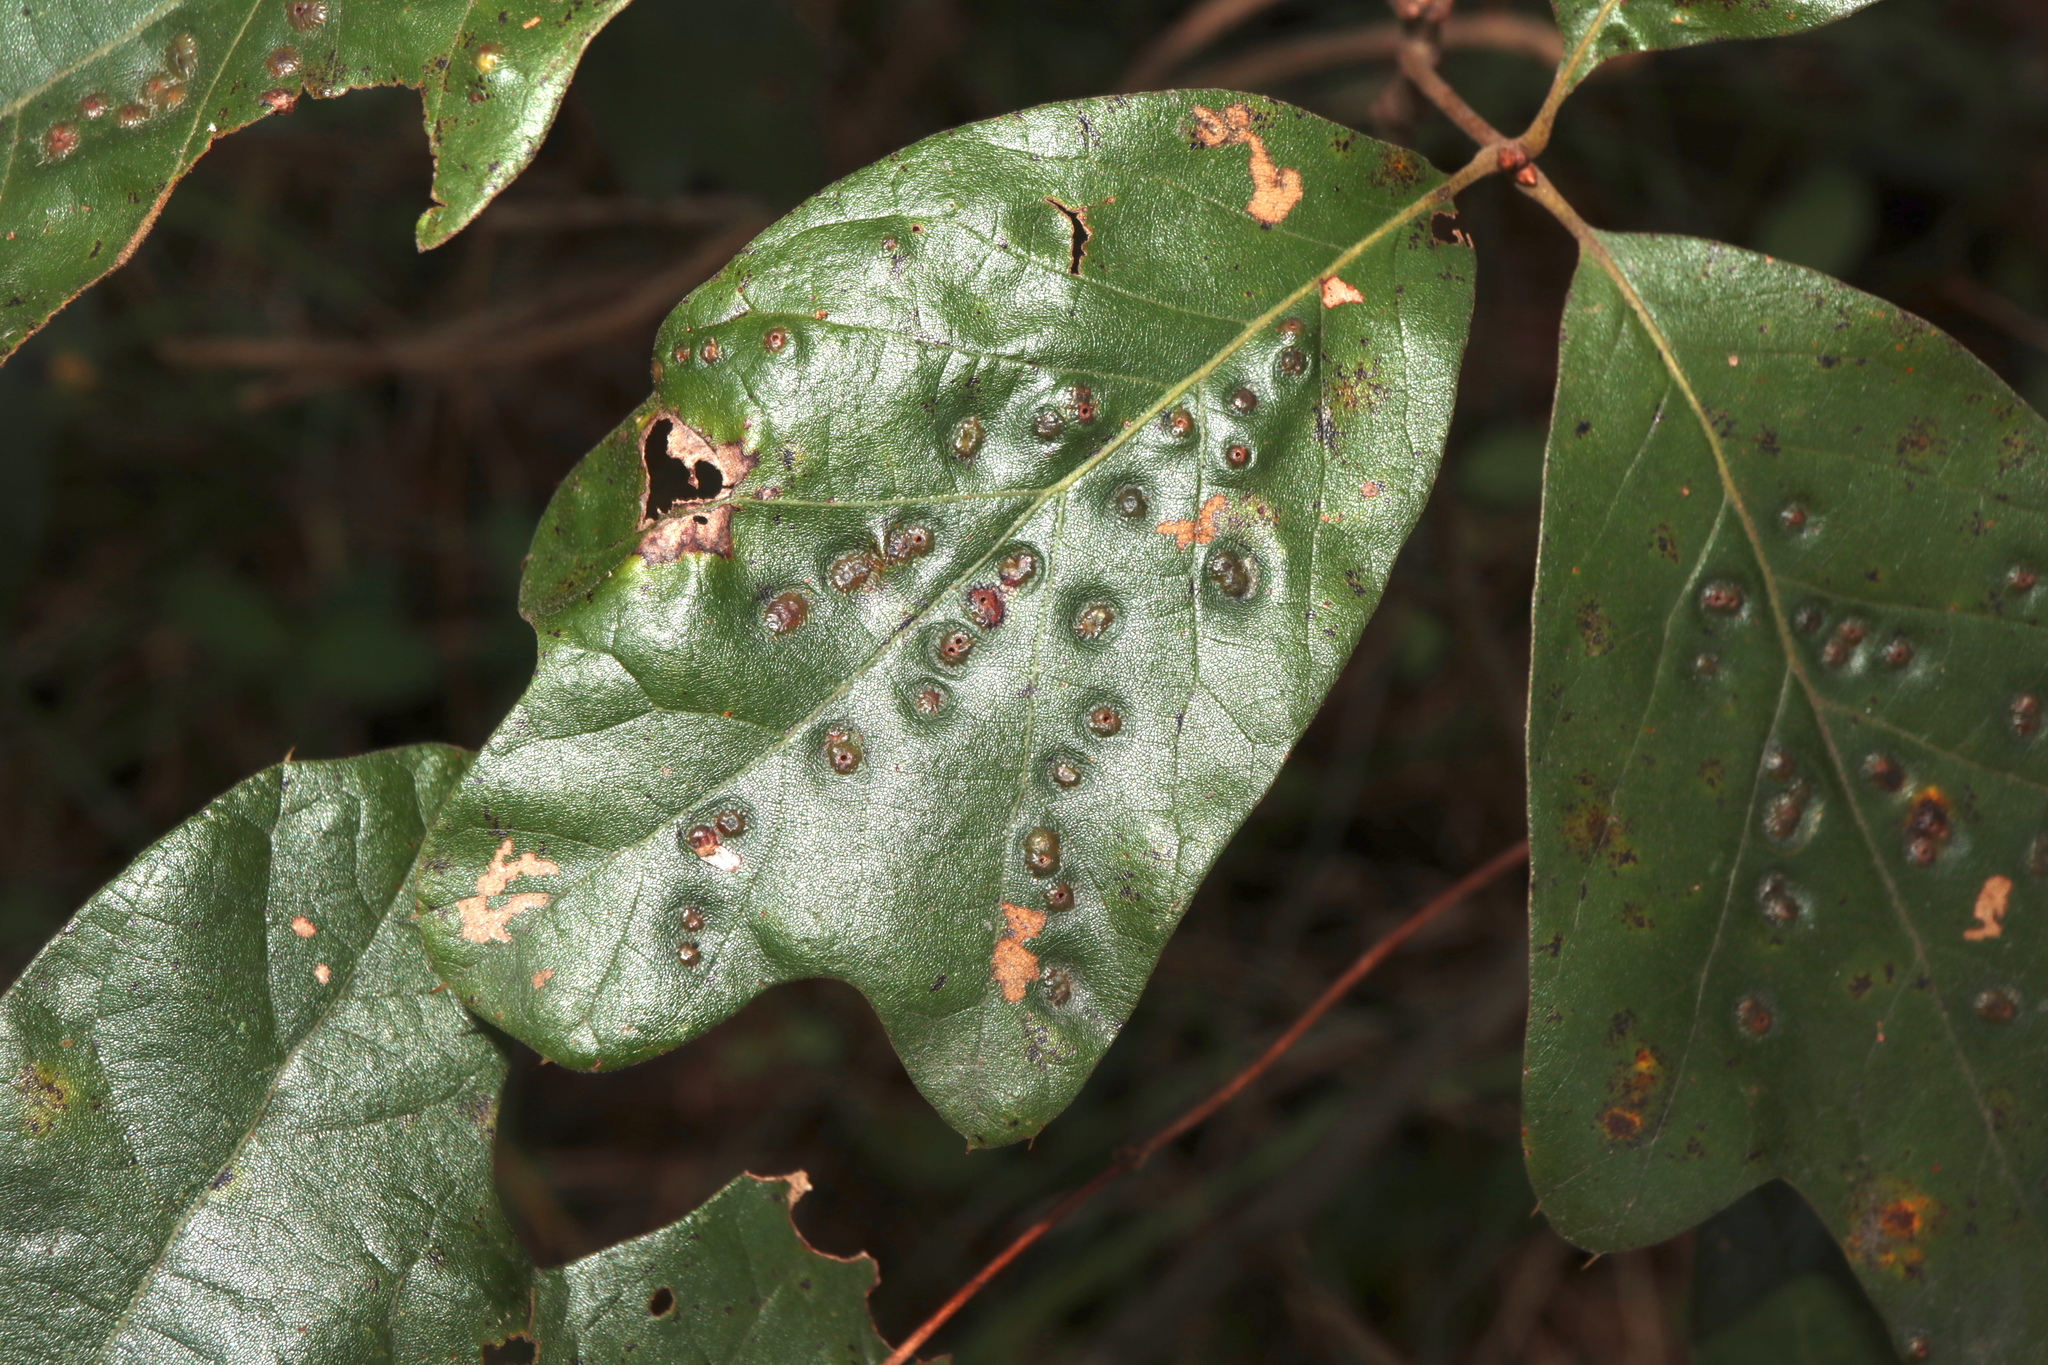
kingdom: Animalia
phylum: Arthropoda
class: Insecta
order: Hymenoptera
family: Cynipidae
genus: Callirhytis
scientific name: Callirhytis
